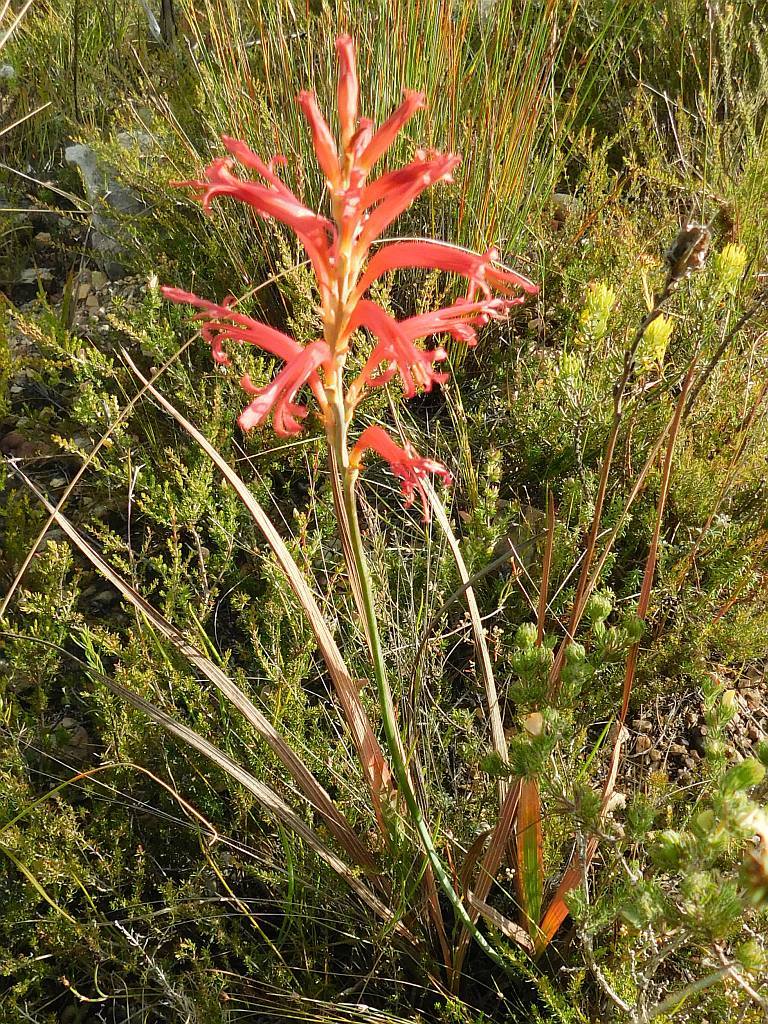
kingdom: Plantae
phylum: Tracheophyta
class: Liliopsida
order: Asparagales
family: Iridaceae
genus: Tritoniopsis
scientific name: Tritoniopsis antholyza
